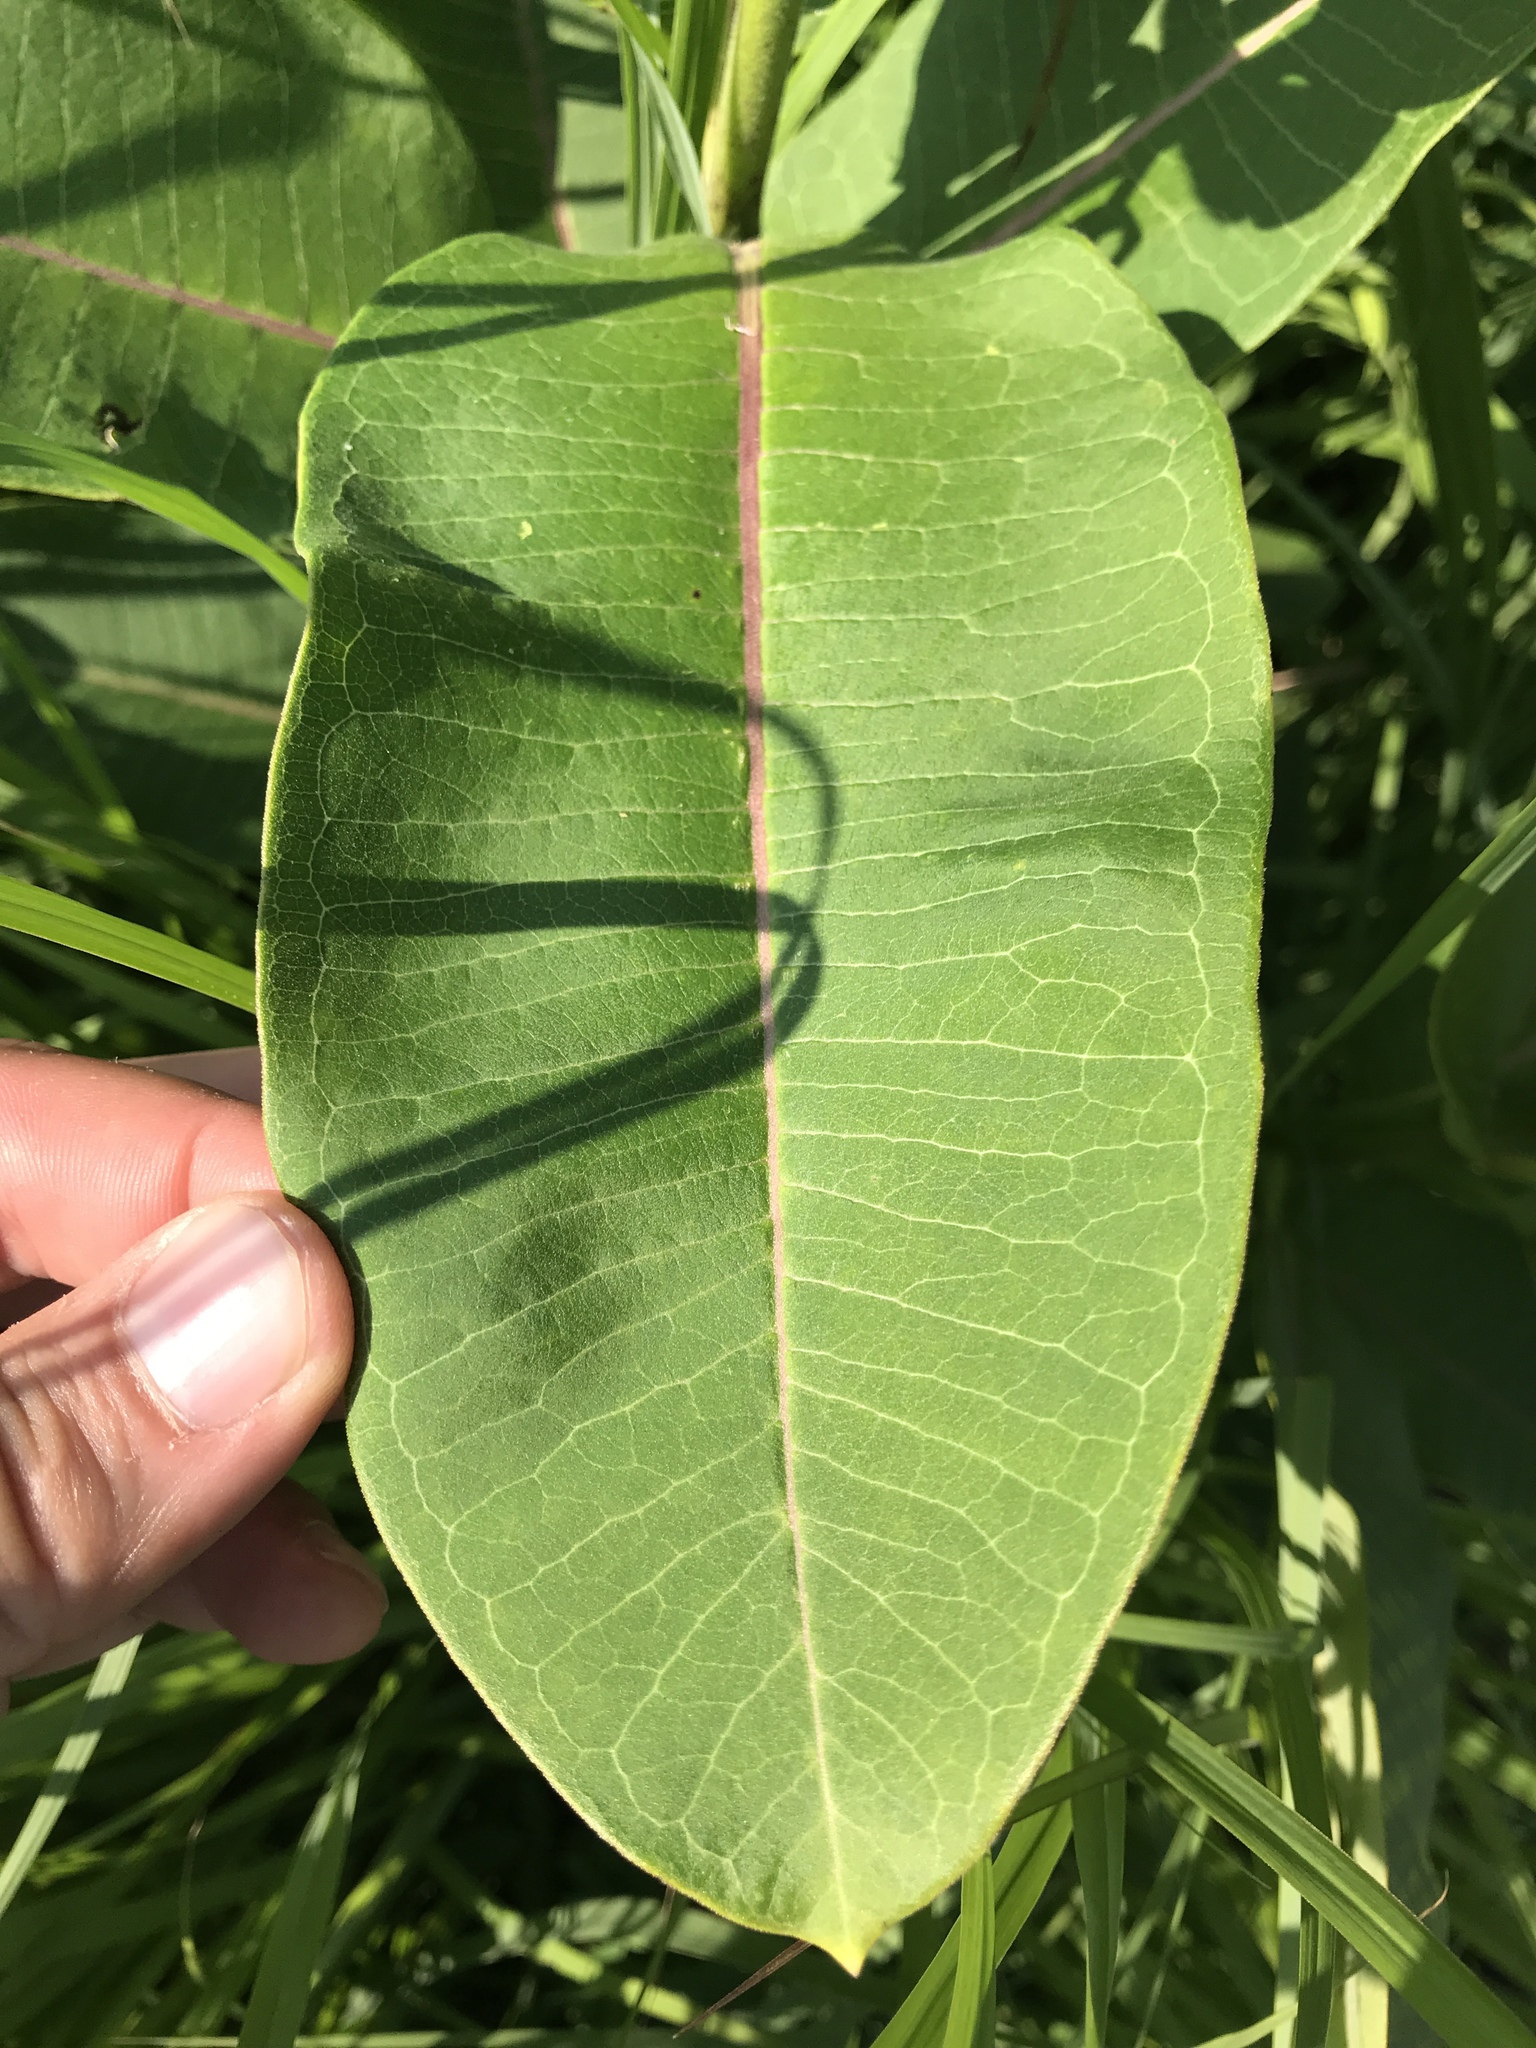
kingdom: Plantae
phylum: Tracheophyta
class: Magnoliopsida
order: Gentianales
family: Apocynaceae
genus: Asclepias
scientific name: Asclepias syriaca
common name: Common milkweed
